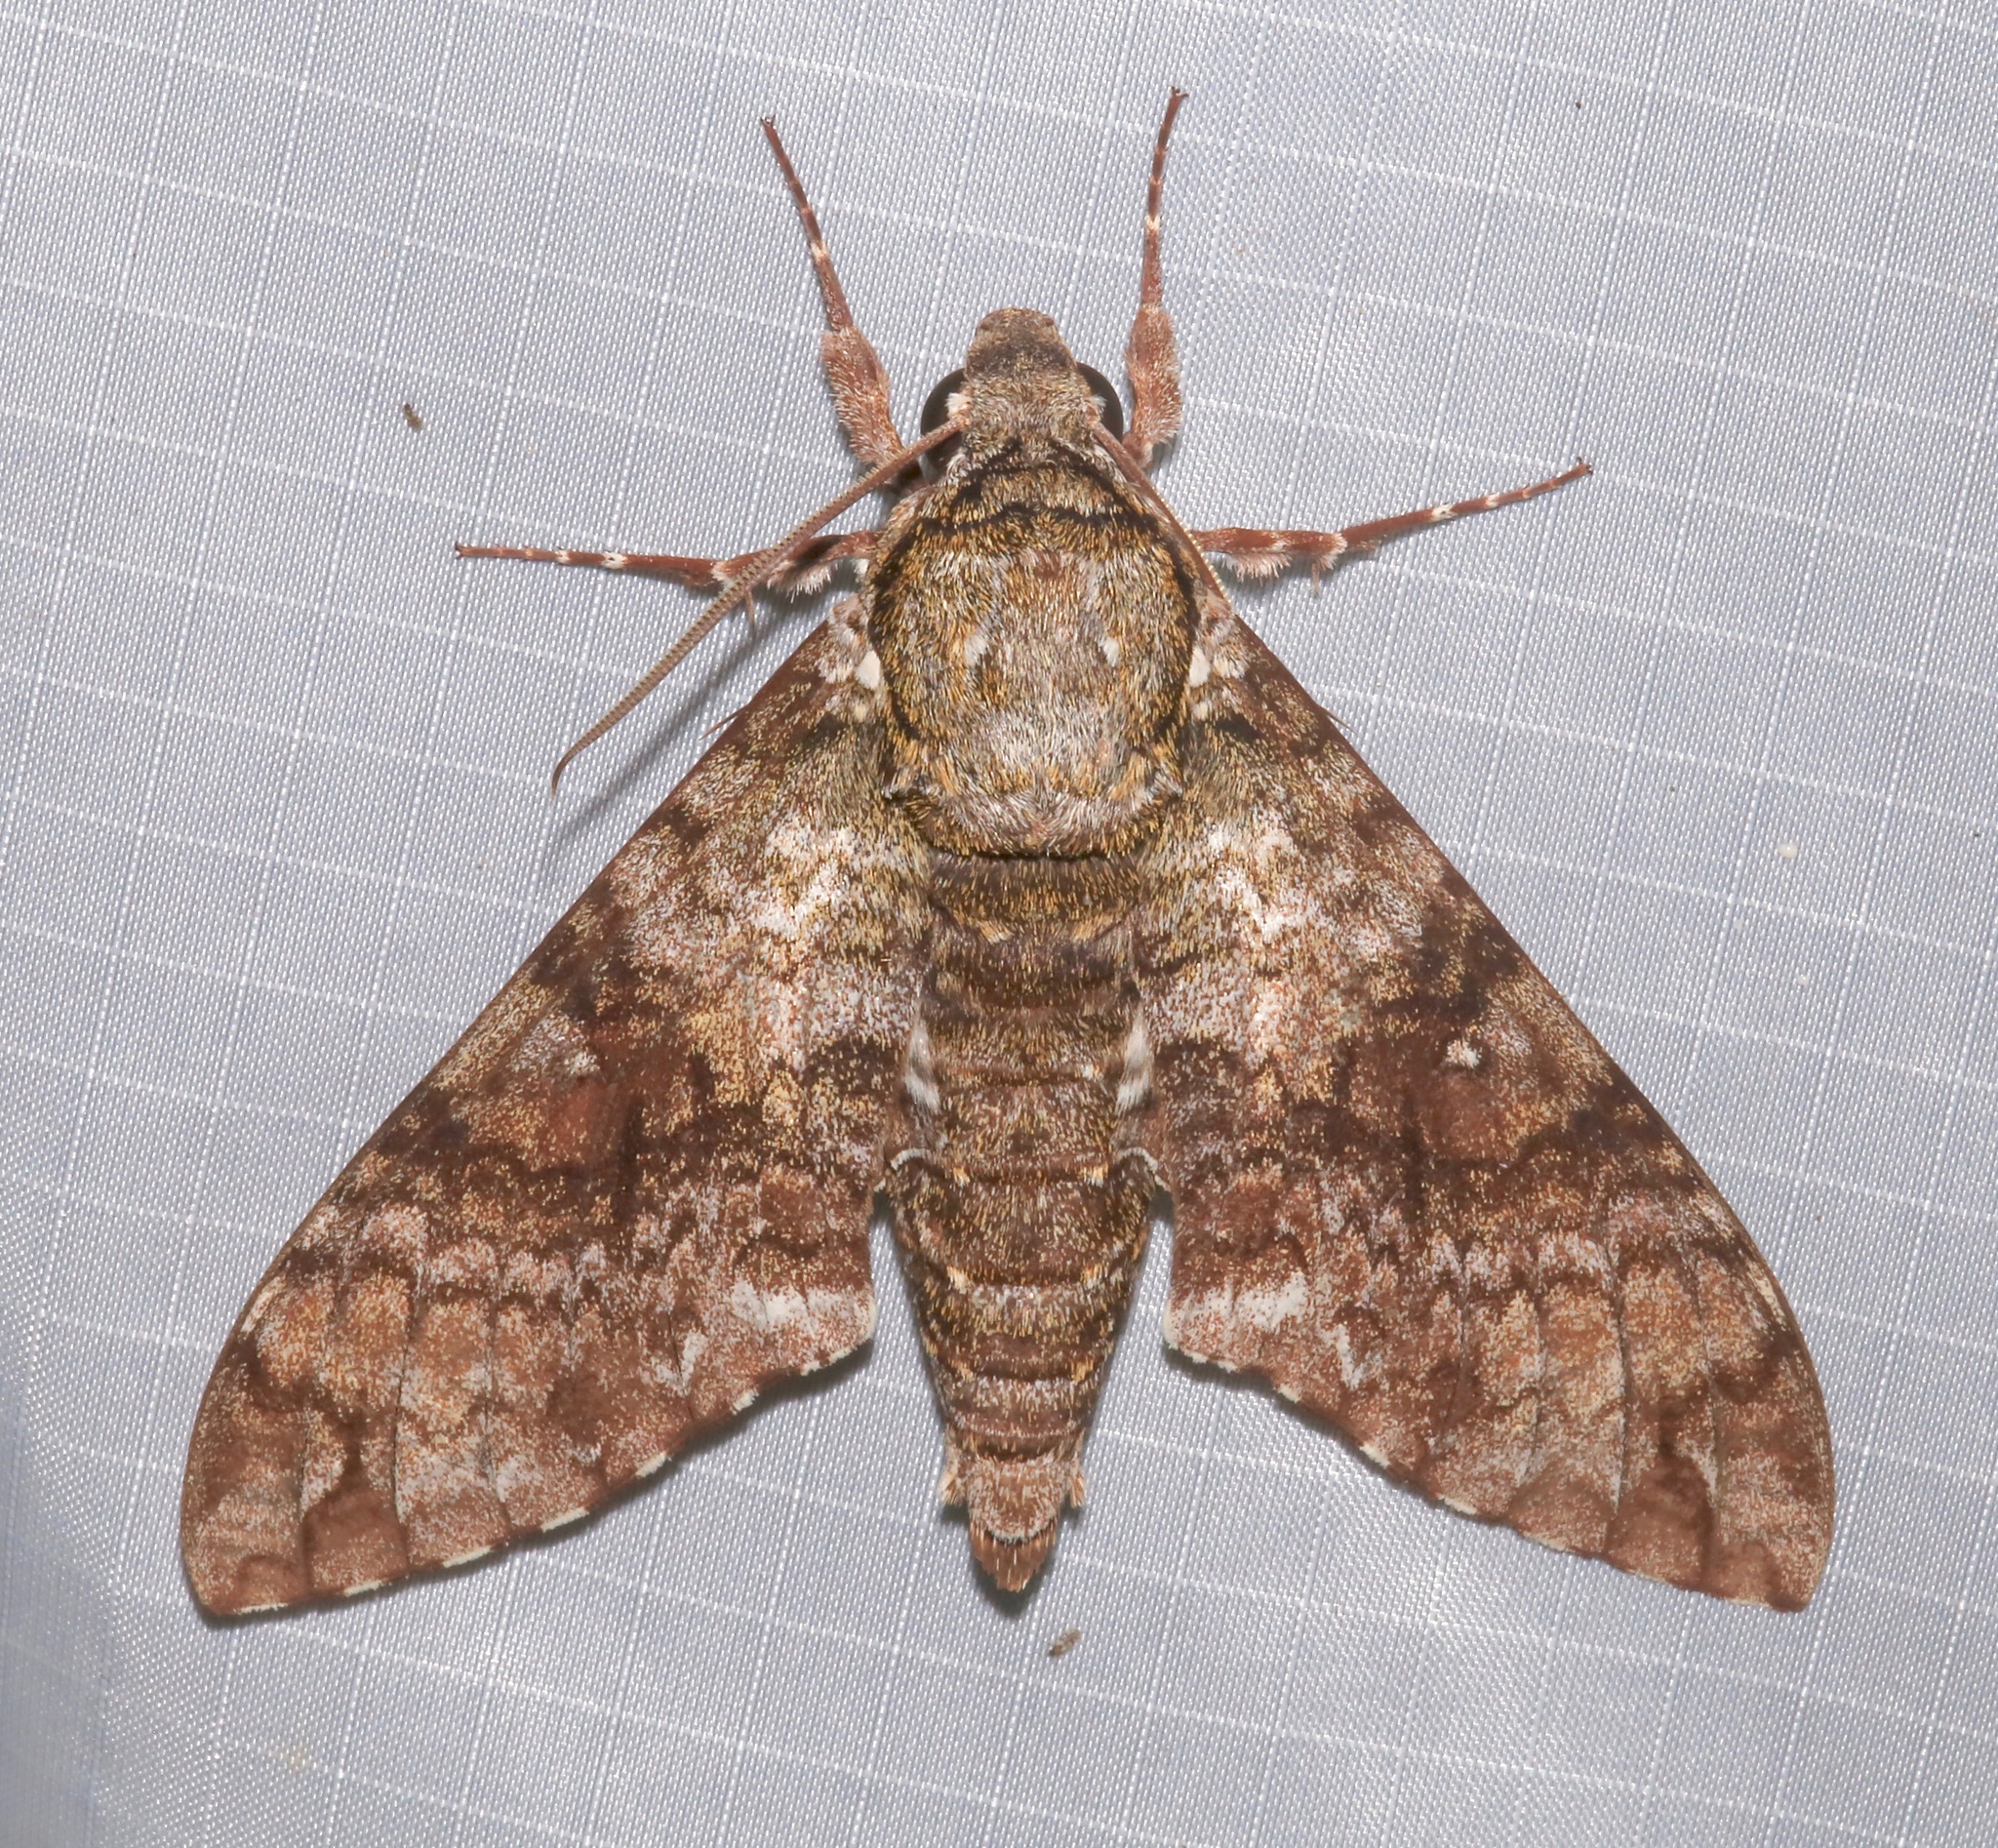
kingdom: Animalia
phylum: Arthropoda
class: Insecta
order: Lepidoptera
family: Sphingidae
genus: Manduca
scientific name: Manduca florestan
